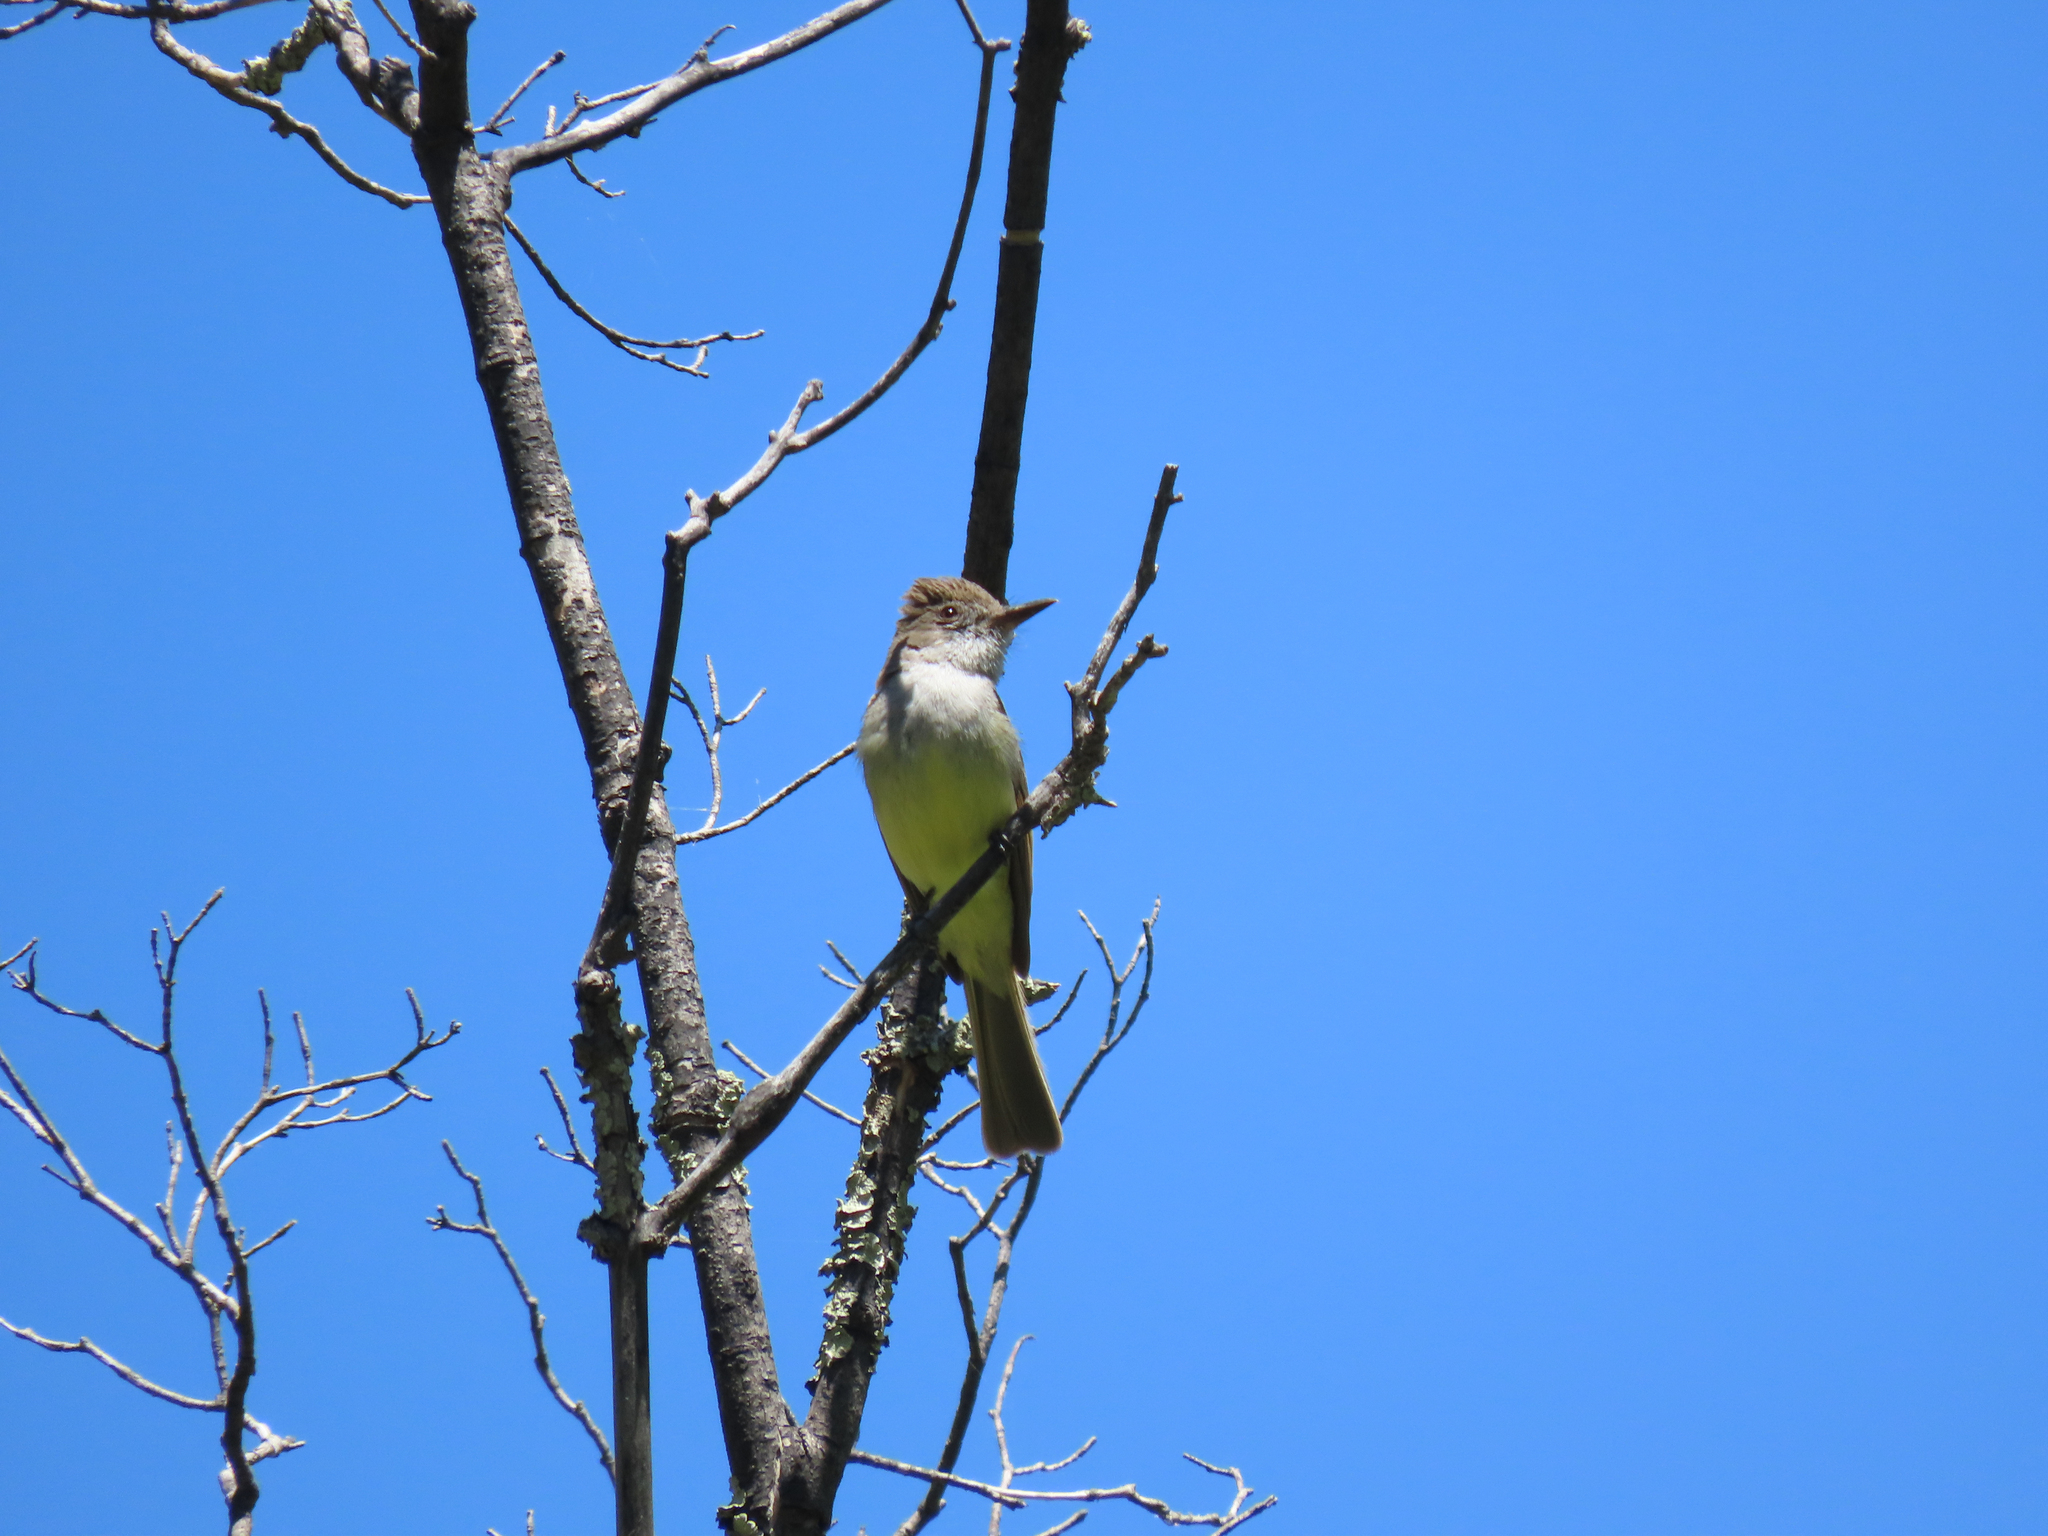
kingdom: Animalia
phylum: Chordata
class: Aves
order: Passeriformes
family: Tyrannidae
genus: Myiarchus
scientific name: Myiarchus tuberculifer
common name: Dusky-capped flycatcher
